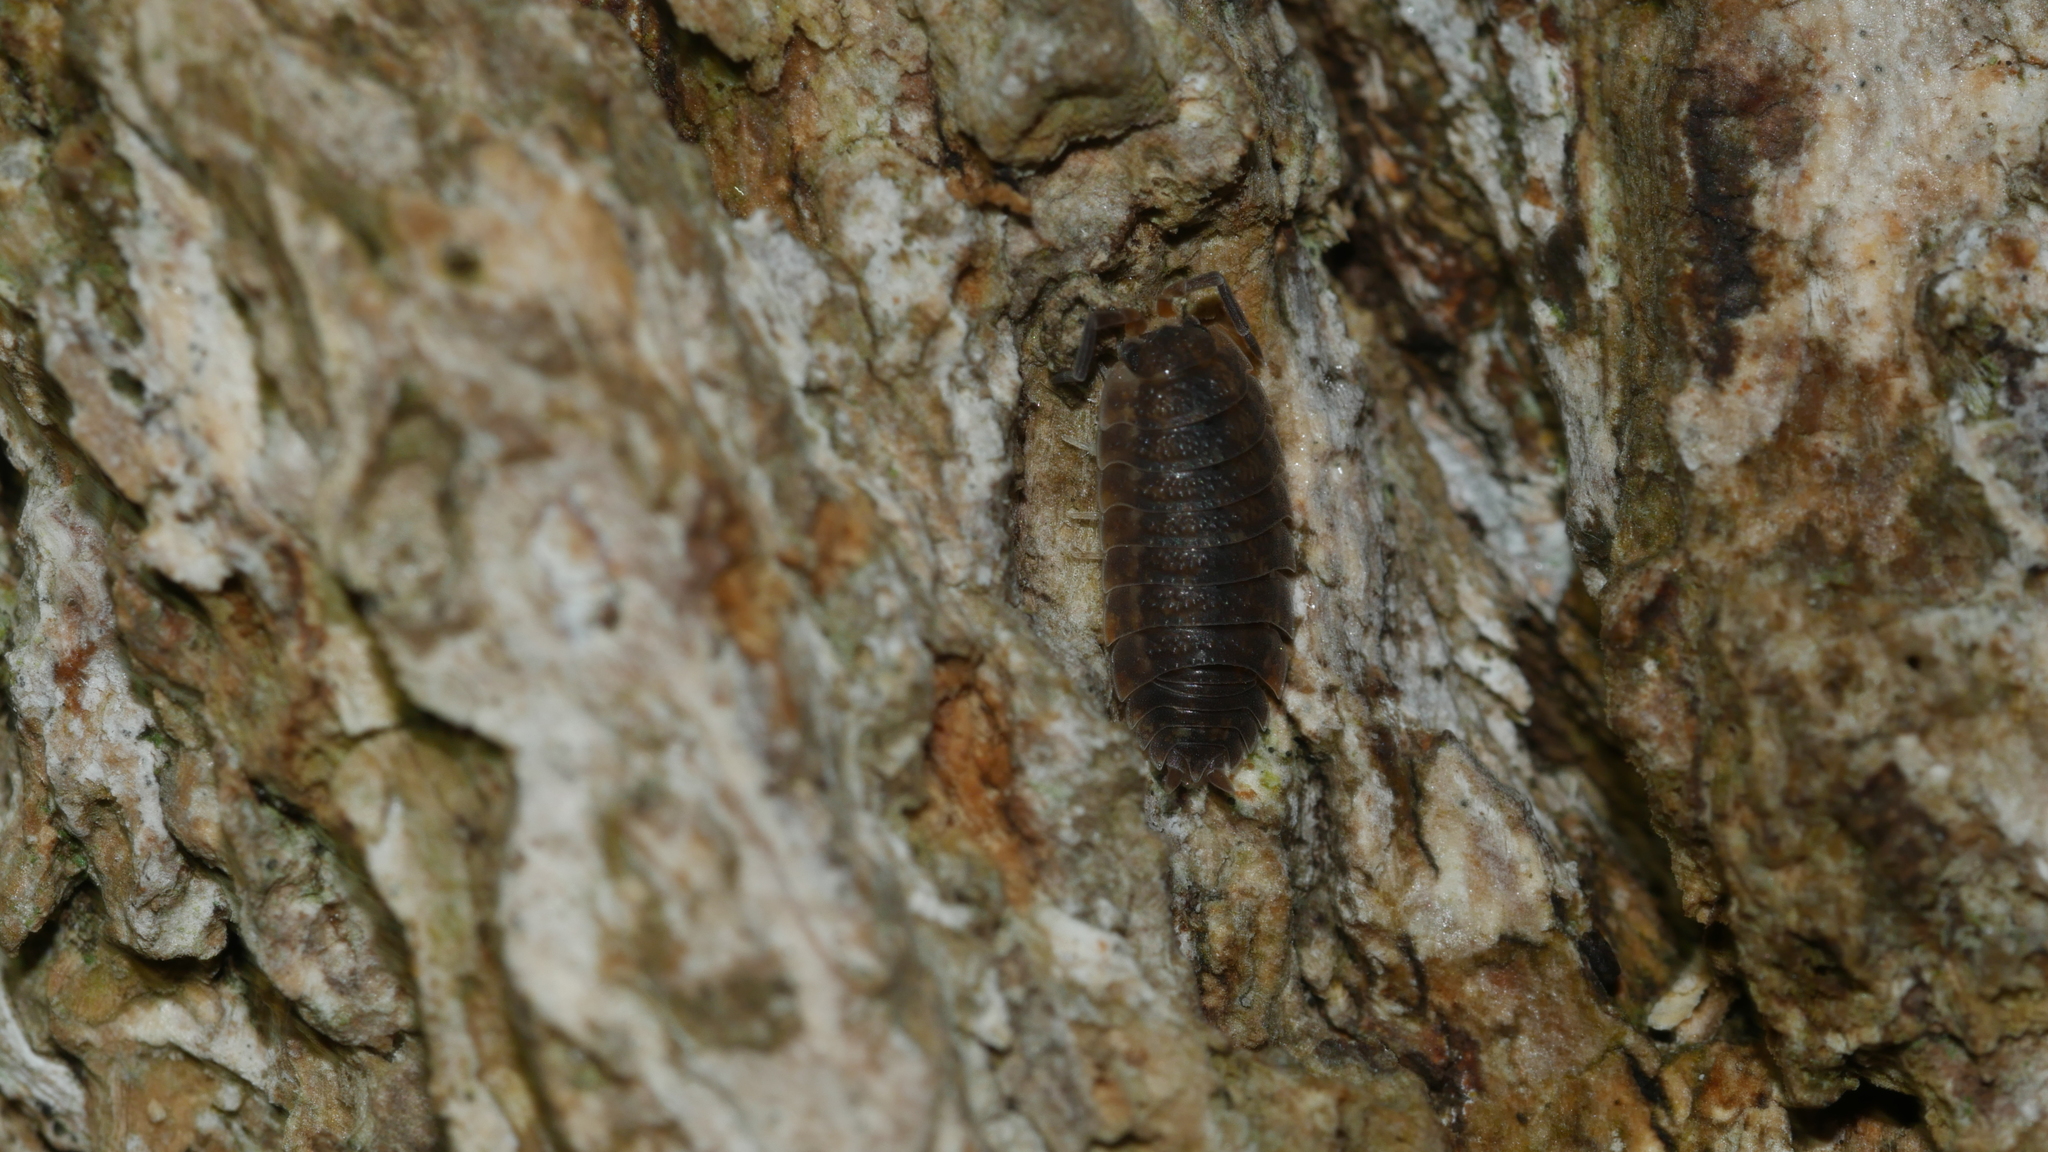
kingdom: Animalia
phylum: Arthropoda
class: Malacostraca
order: Isopoda
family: Porcellionidae
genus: Porcellio
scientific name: Porcellio scaber
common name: Common rough woodlouse
